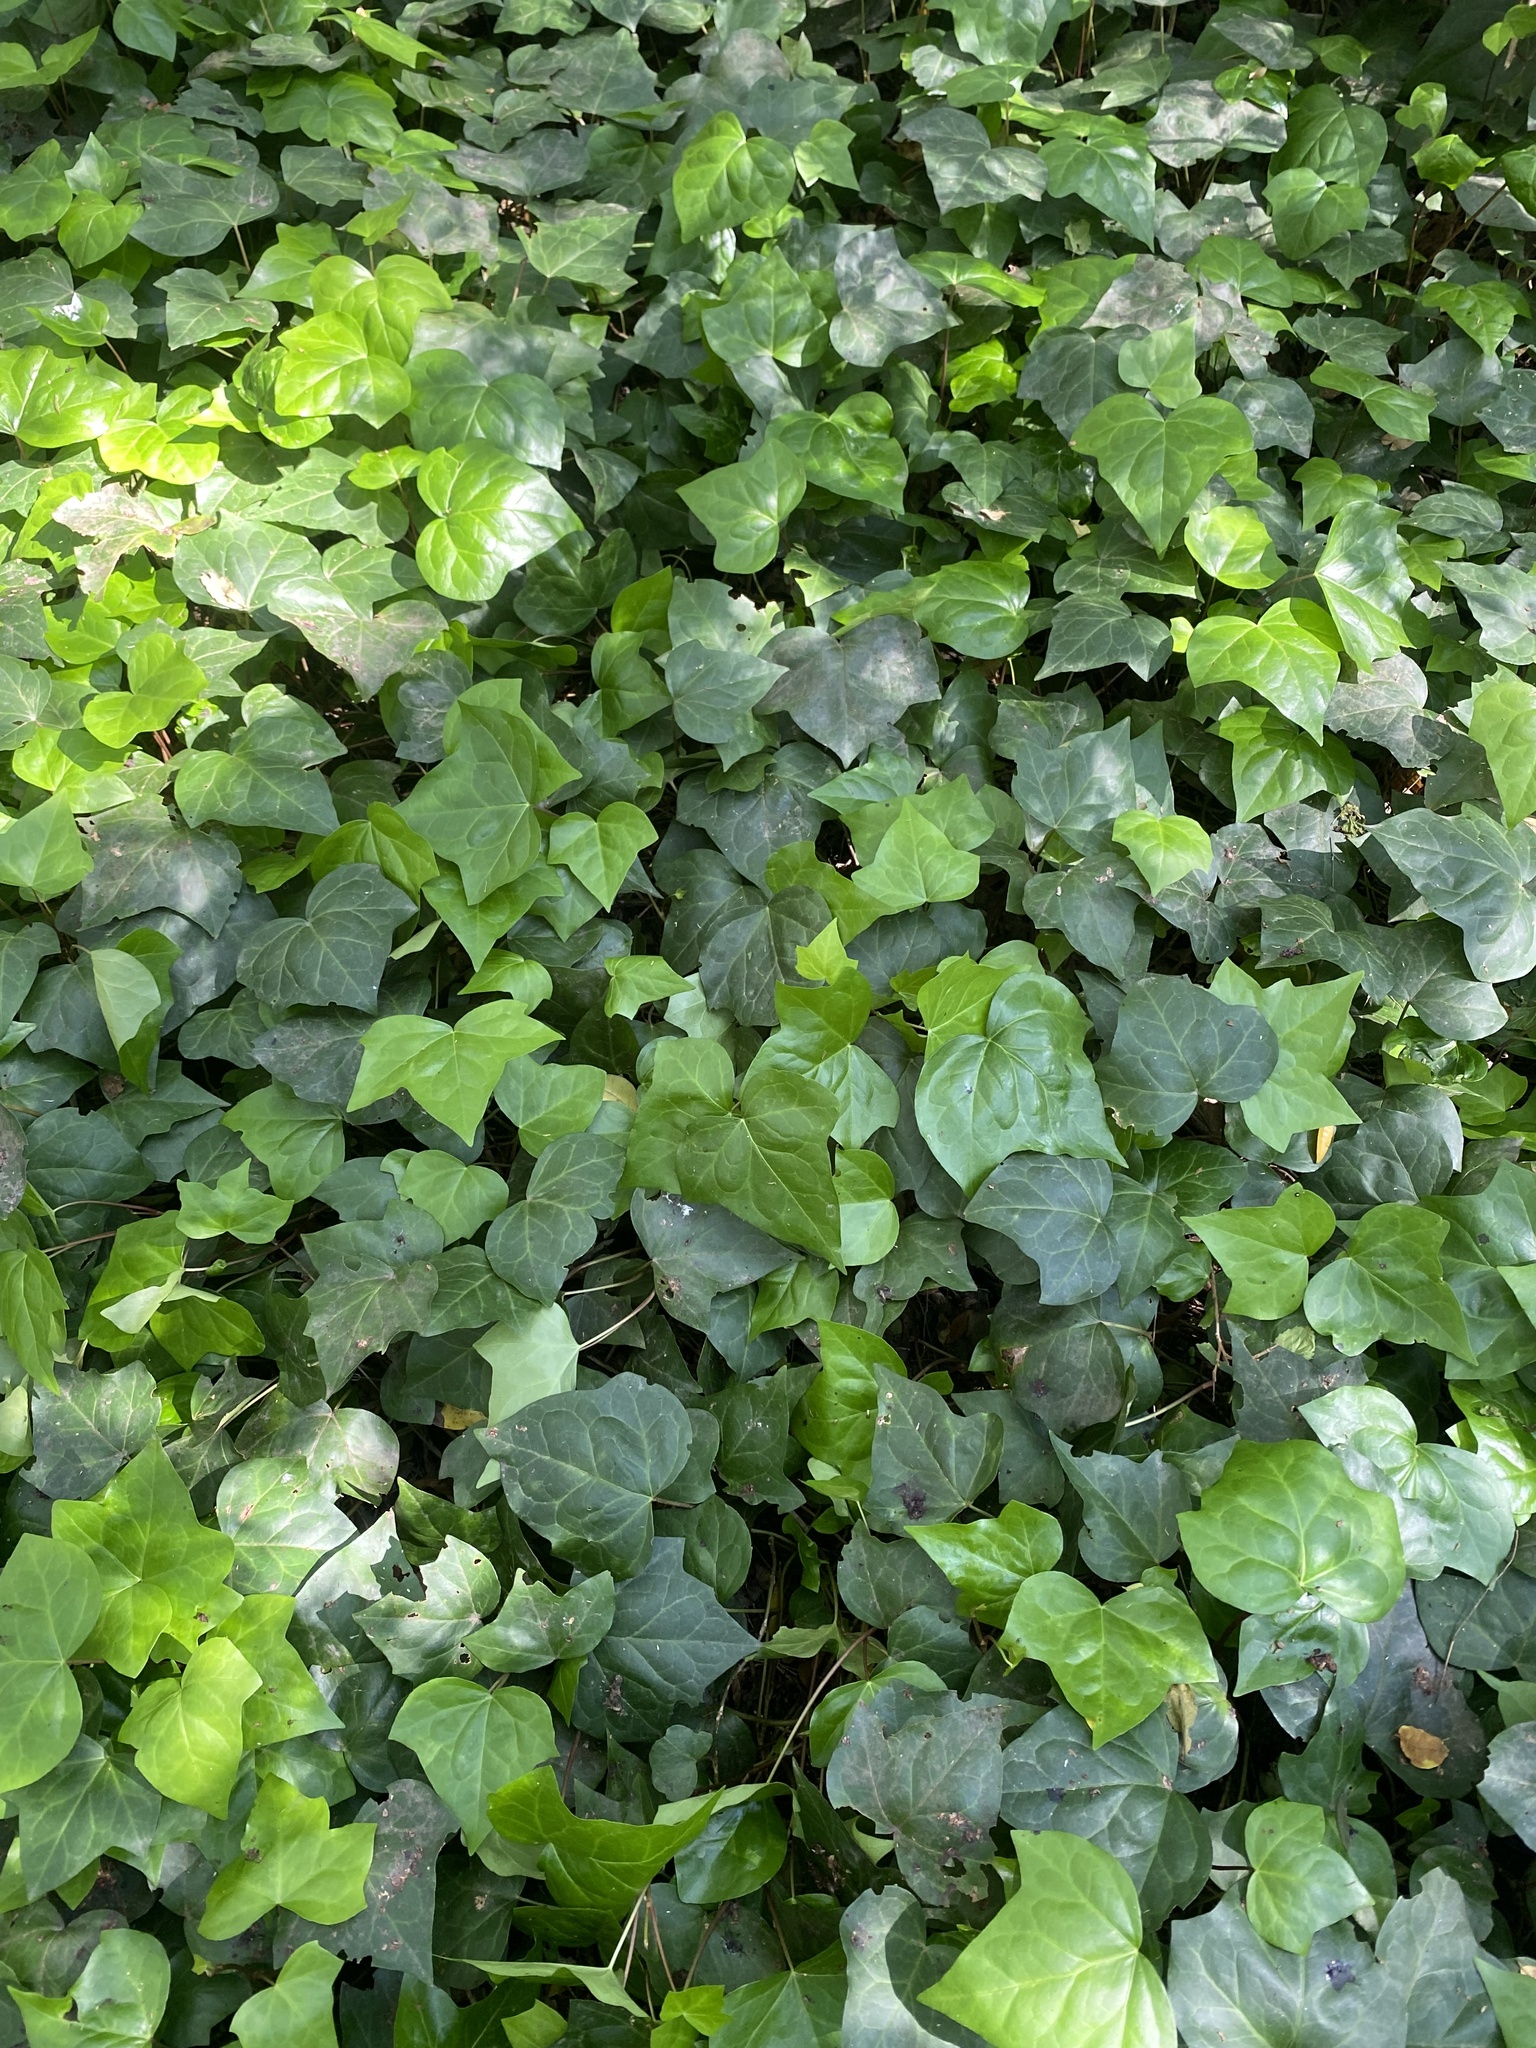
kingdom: Plantae
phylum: Tracheophyta
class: Magnoliopsida
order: Apiales
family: Araliaceae
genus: Hedera
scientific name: Hedera helix
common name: Ivy
